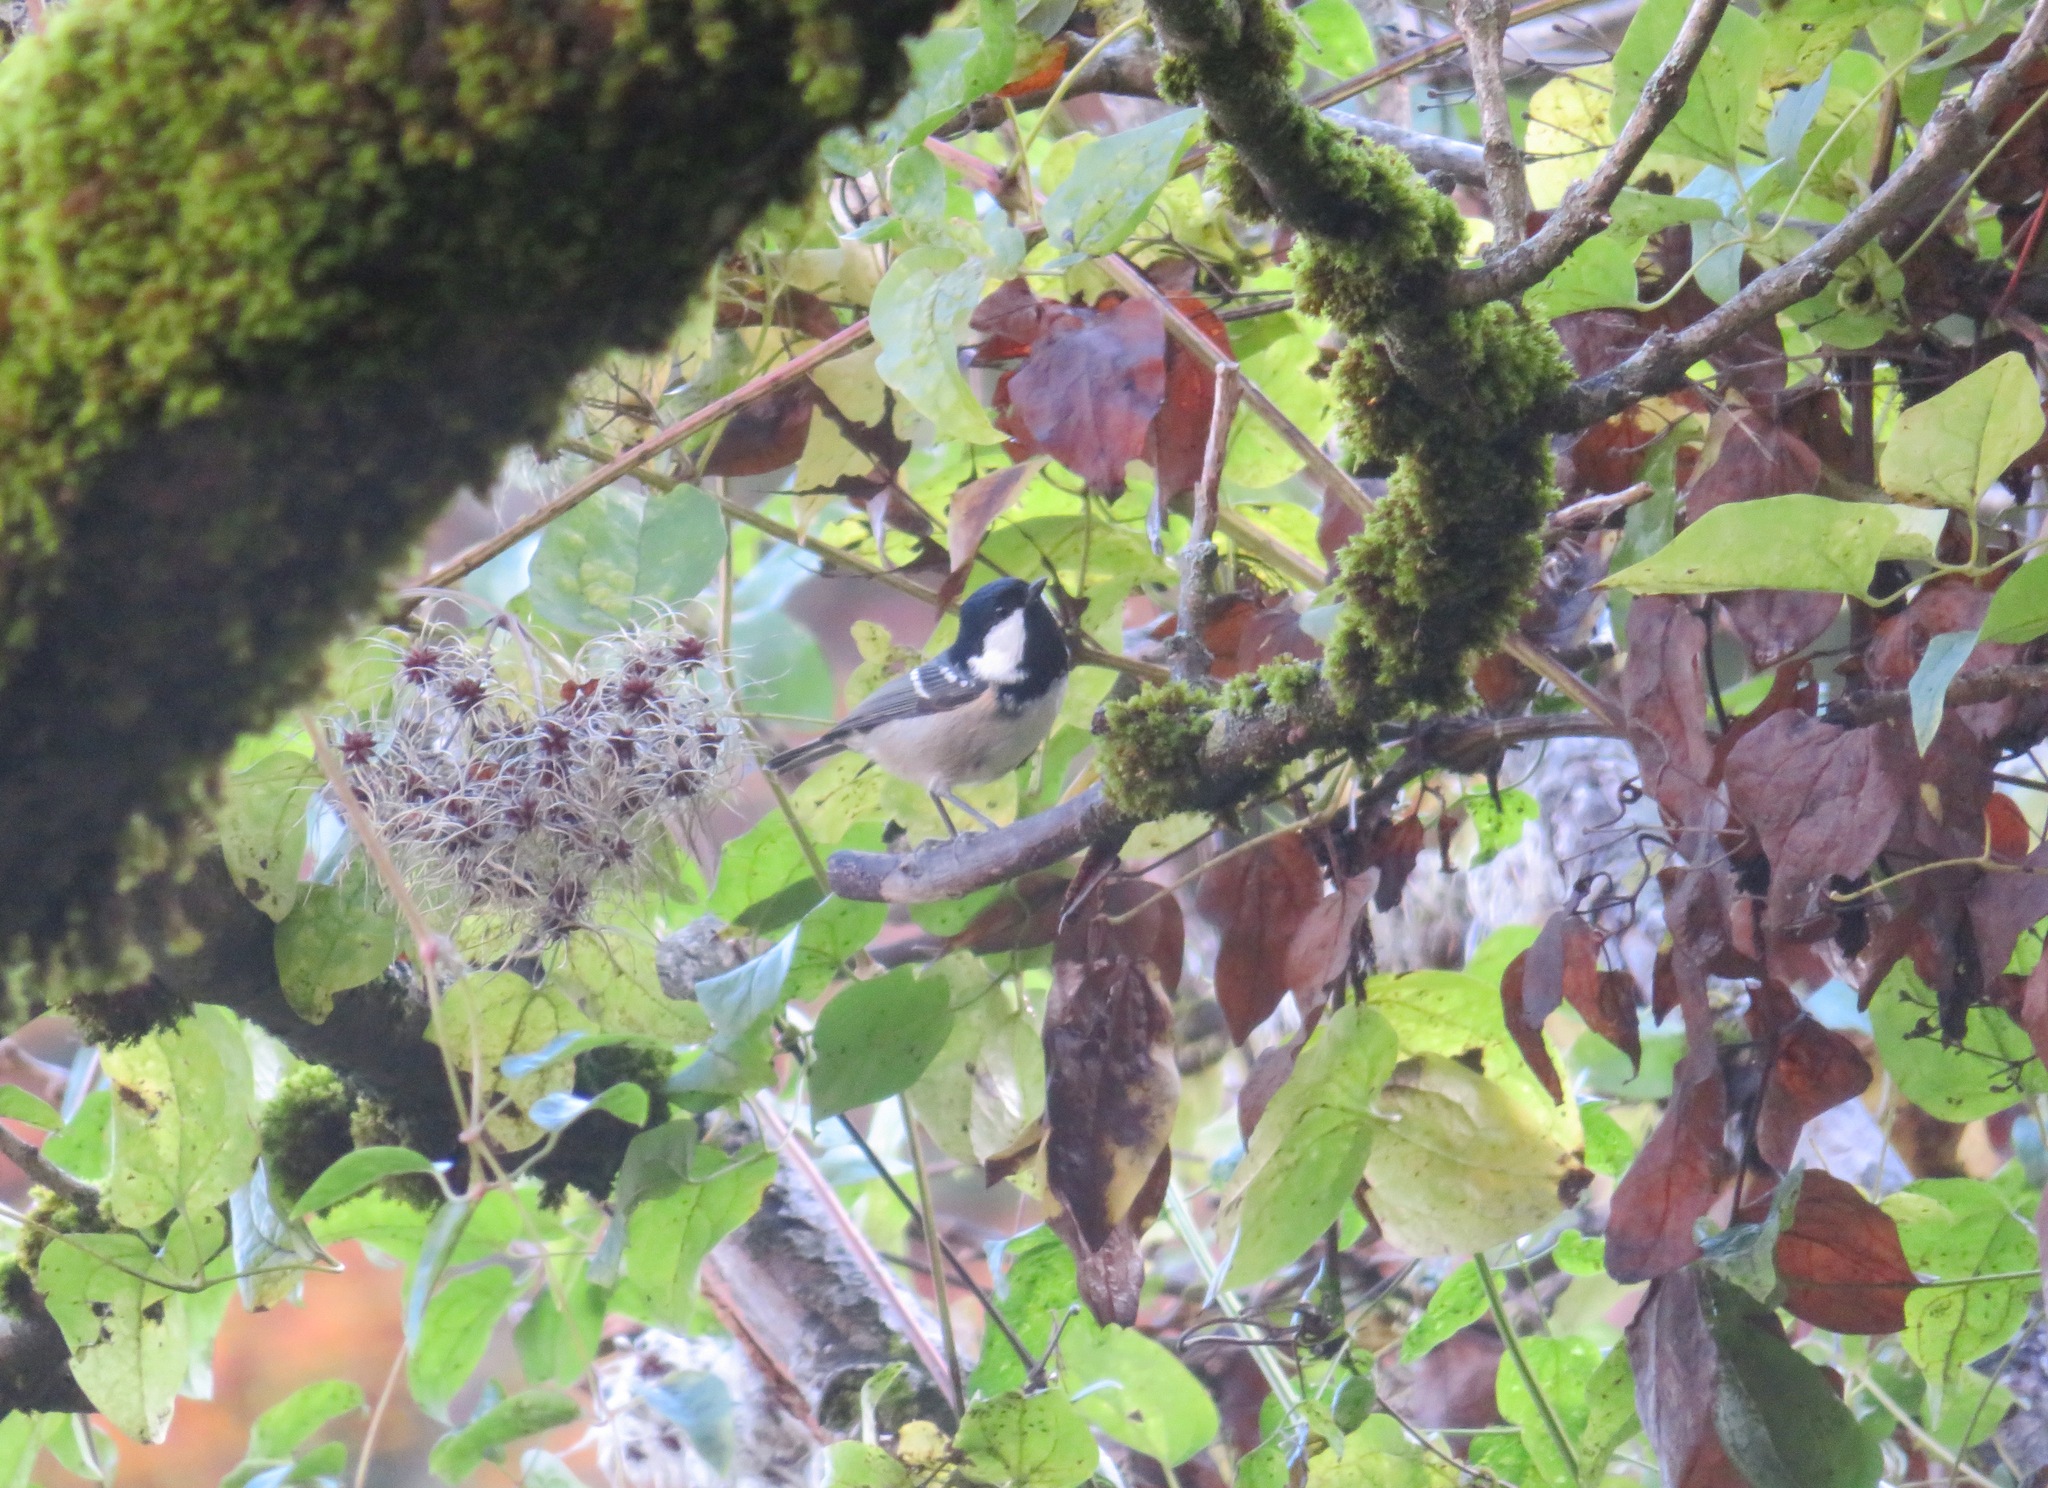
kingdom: Animalia
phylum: Chordata
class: Aves
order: Passeriformes
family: Paridae
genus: Periparus
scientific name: Periparus ater
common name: Coal tit
